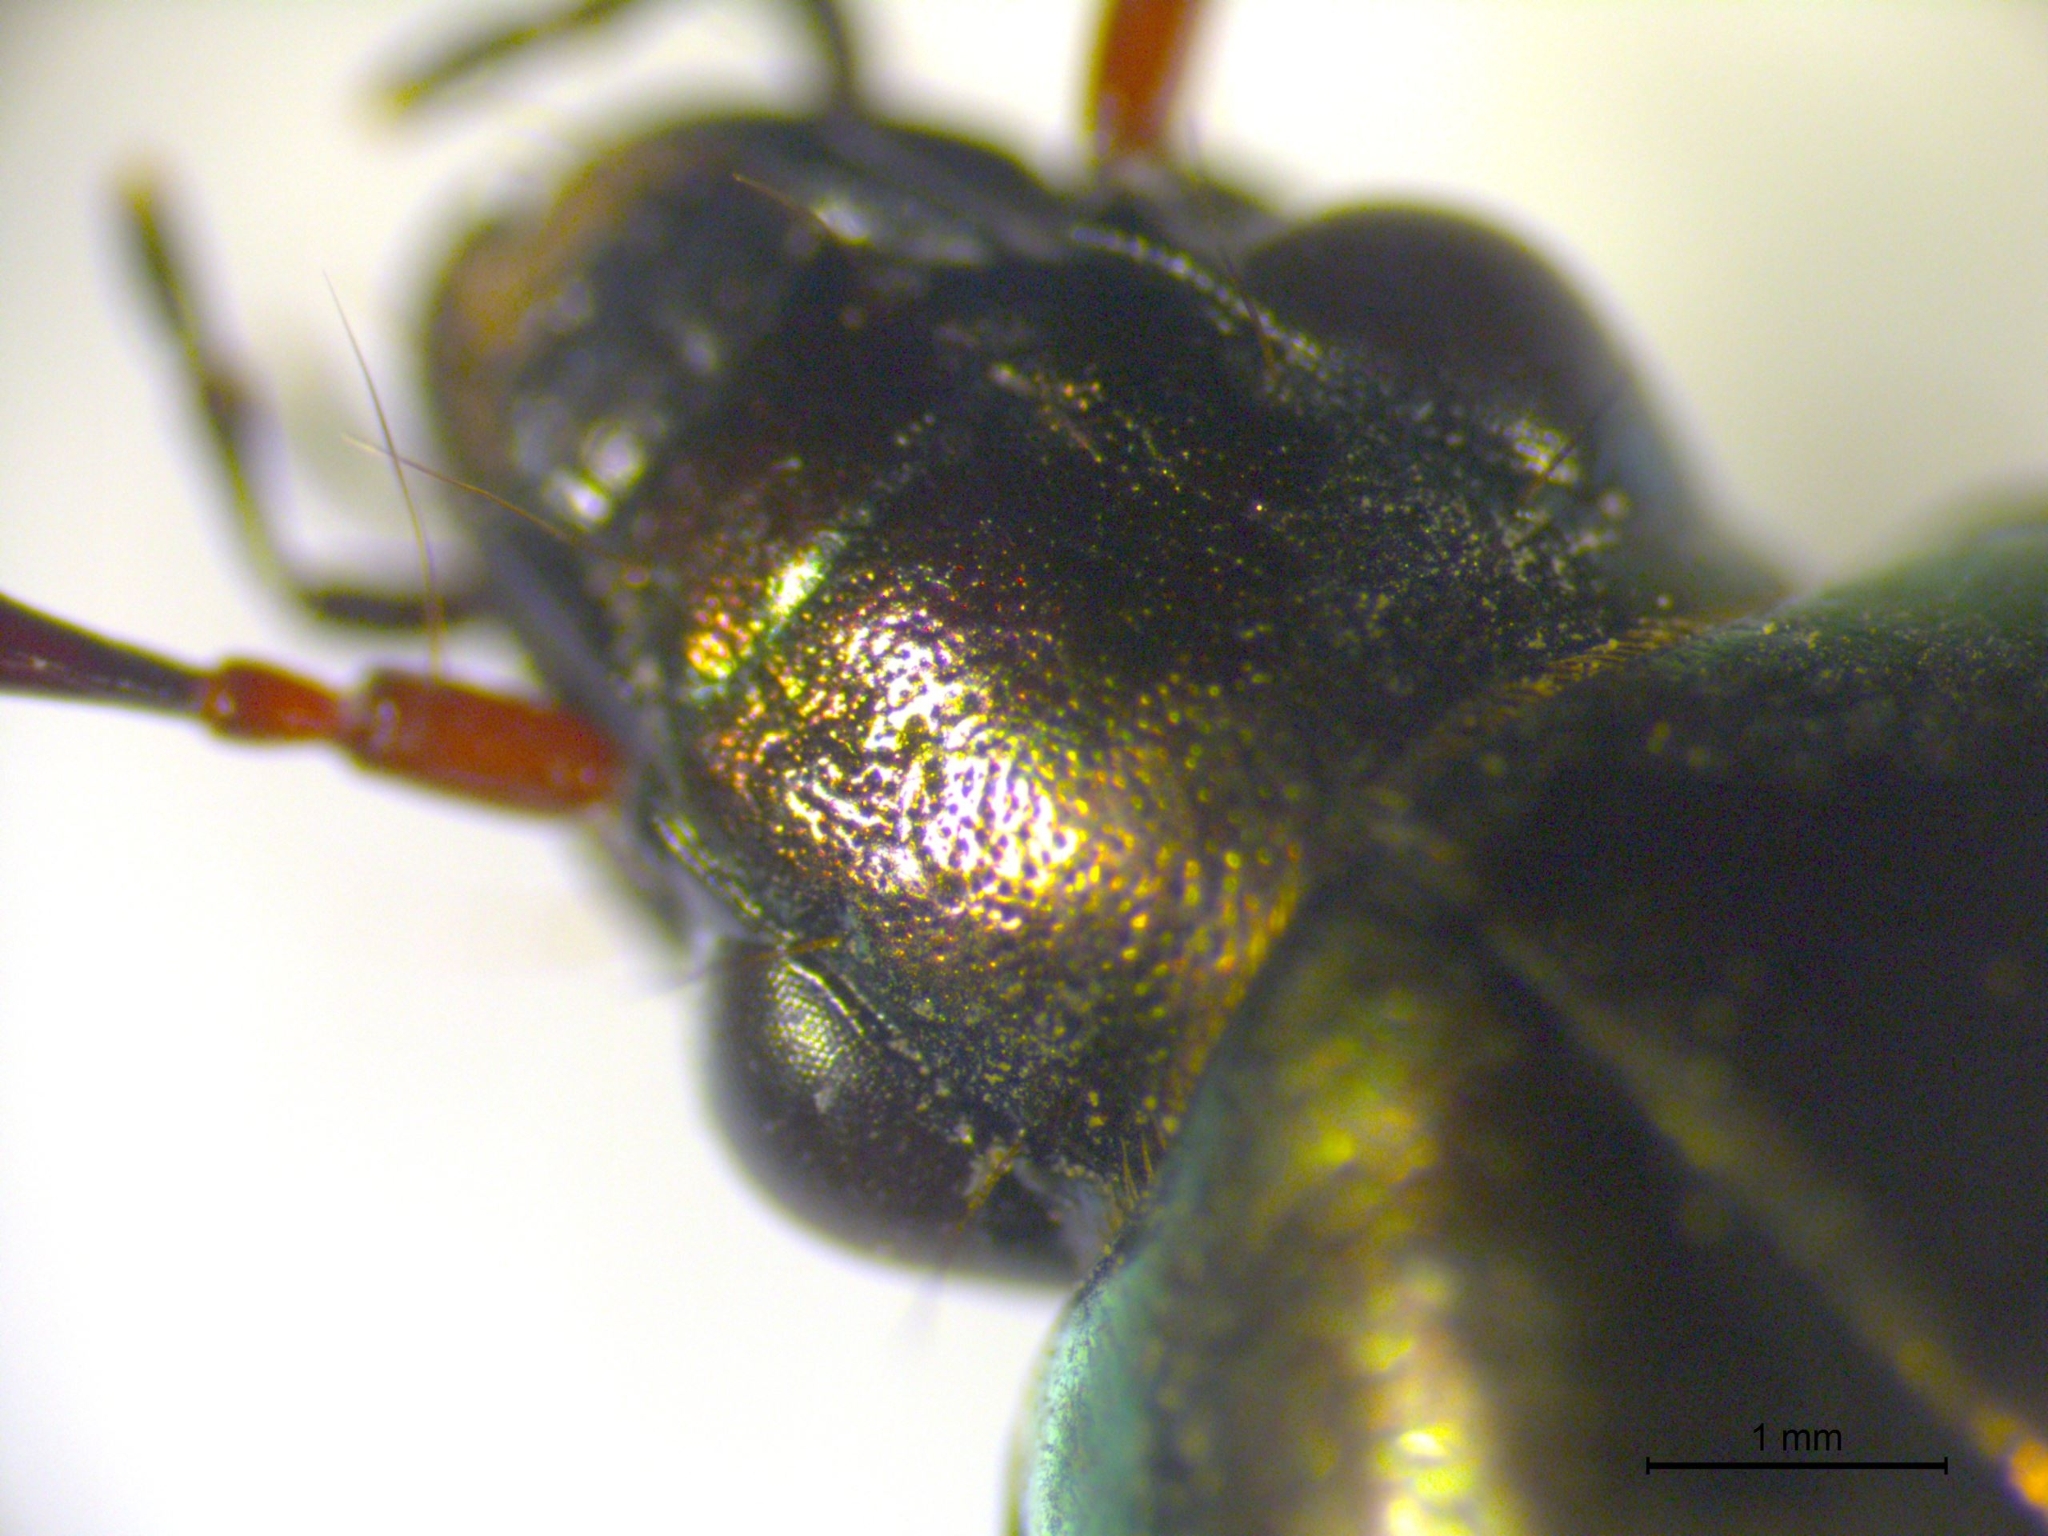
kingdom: Animalia
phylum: Arthropoda
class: Insecta
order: Coleoptera
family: Carabidae
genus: Poecilus
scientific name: Poecilus cupreus
